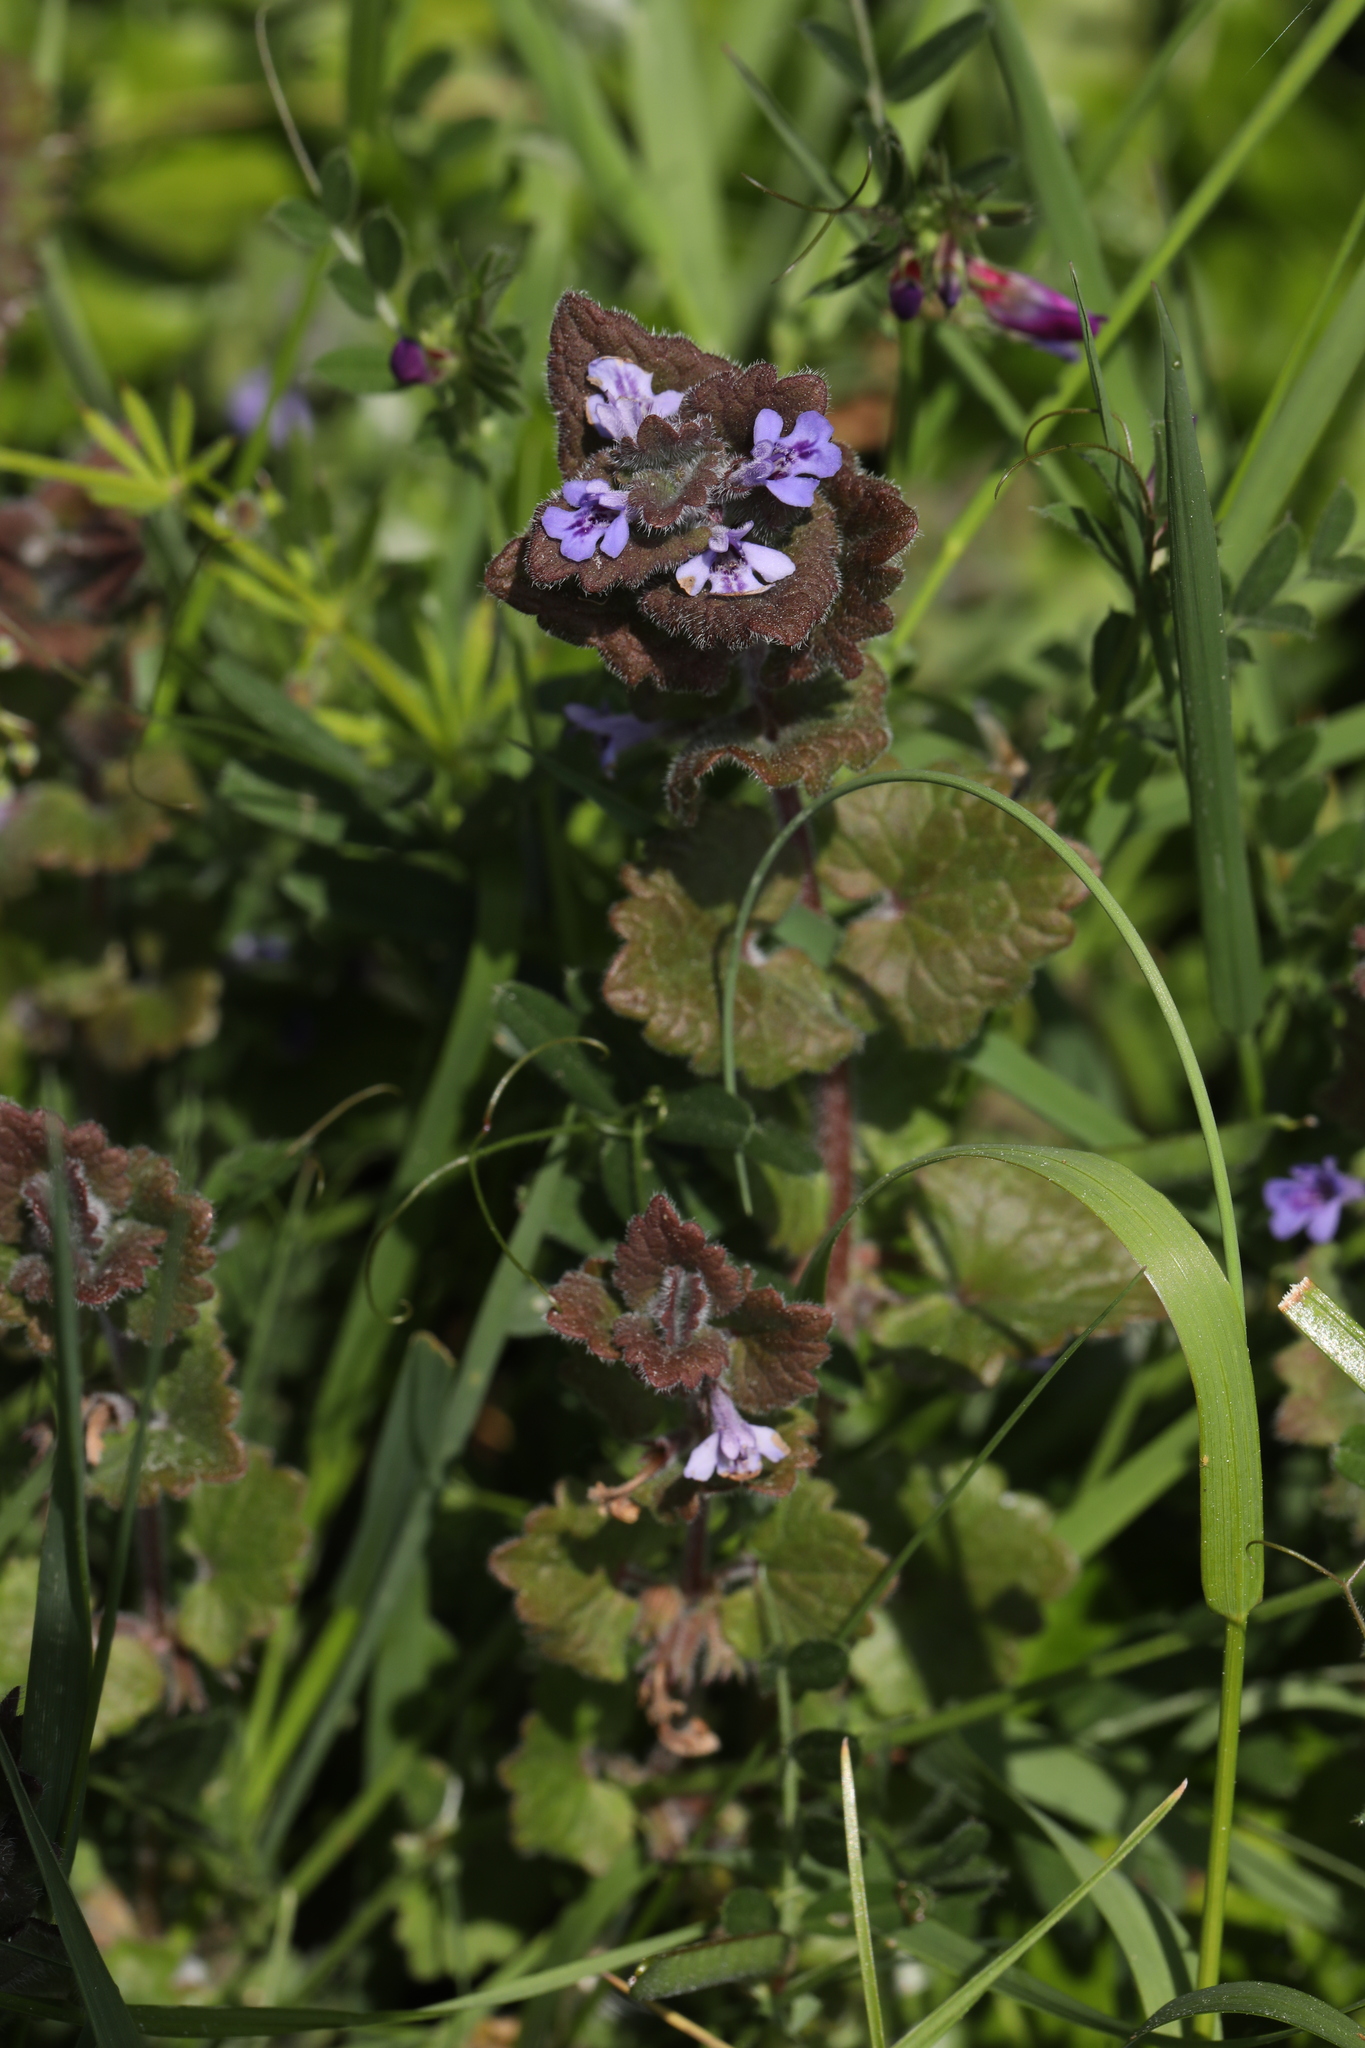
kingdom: Plantae
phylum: Tracheophyta
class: Magnoliopsida
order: Lamiales
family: Lamiaceae
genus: Glechoma
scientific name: Glechoma hederacea
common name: Ground ivy
